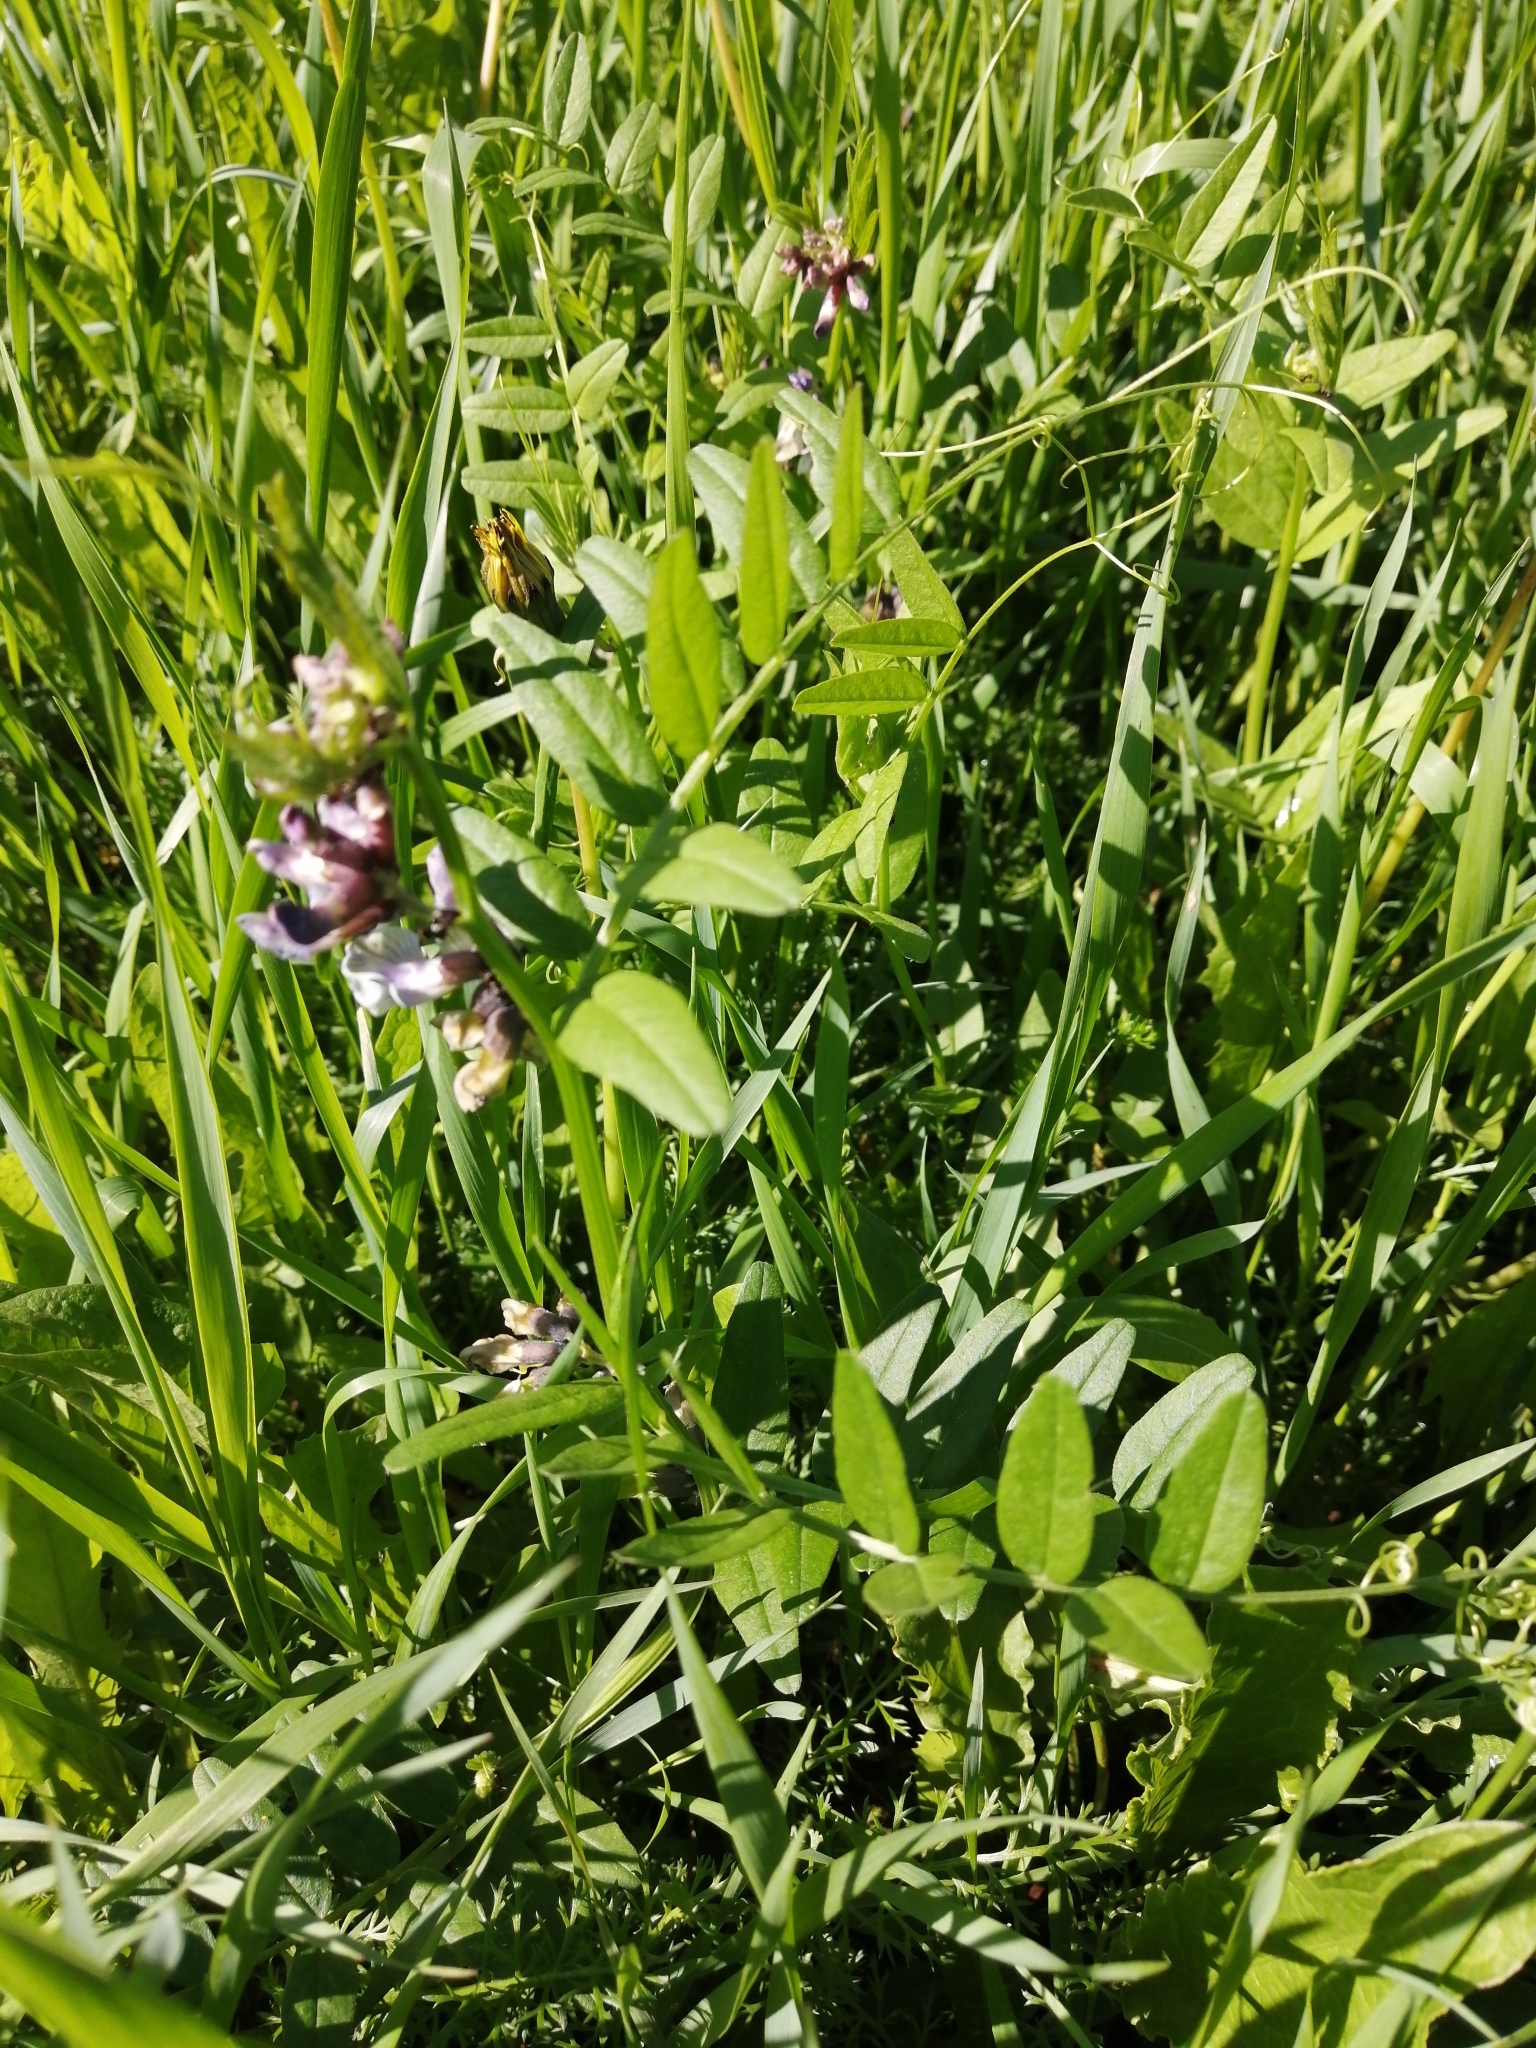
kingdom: Plantae
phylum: Tracheophyta
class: Magnoliopsida
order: Fabales
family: Fabaceae
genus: Vicia
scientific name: Vicia sepium
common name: Bush vetch
